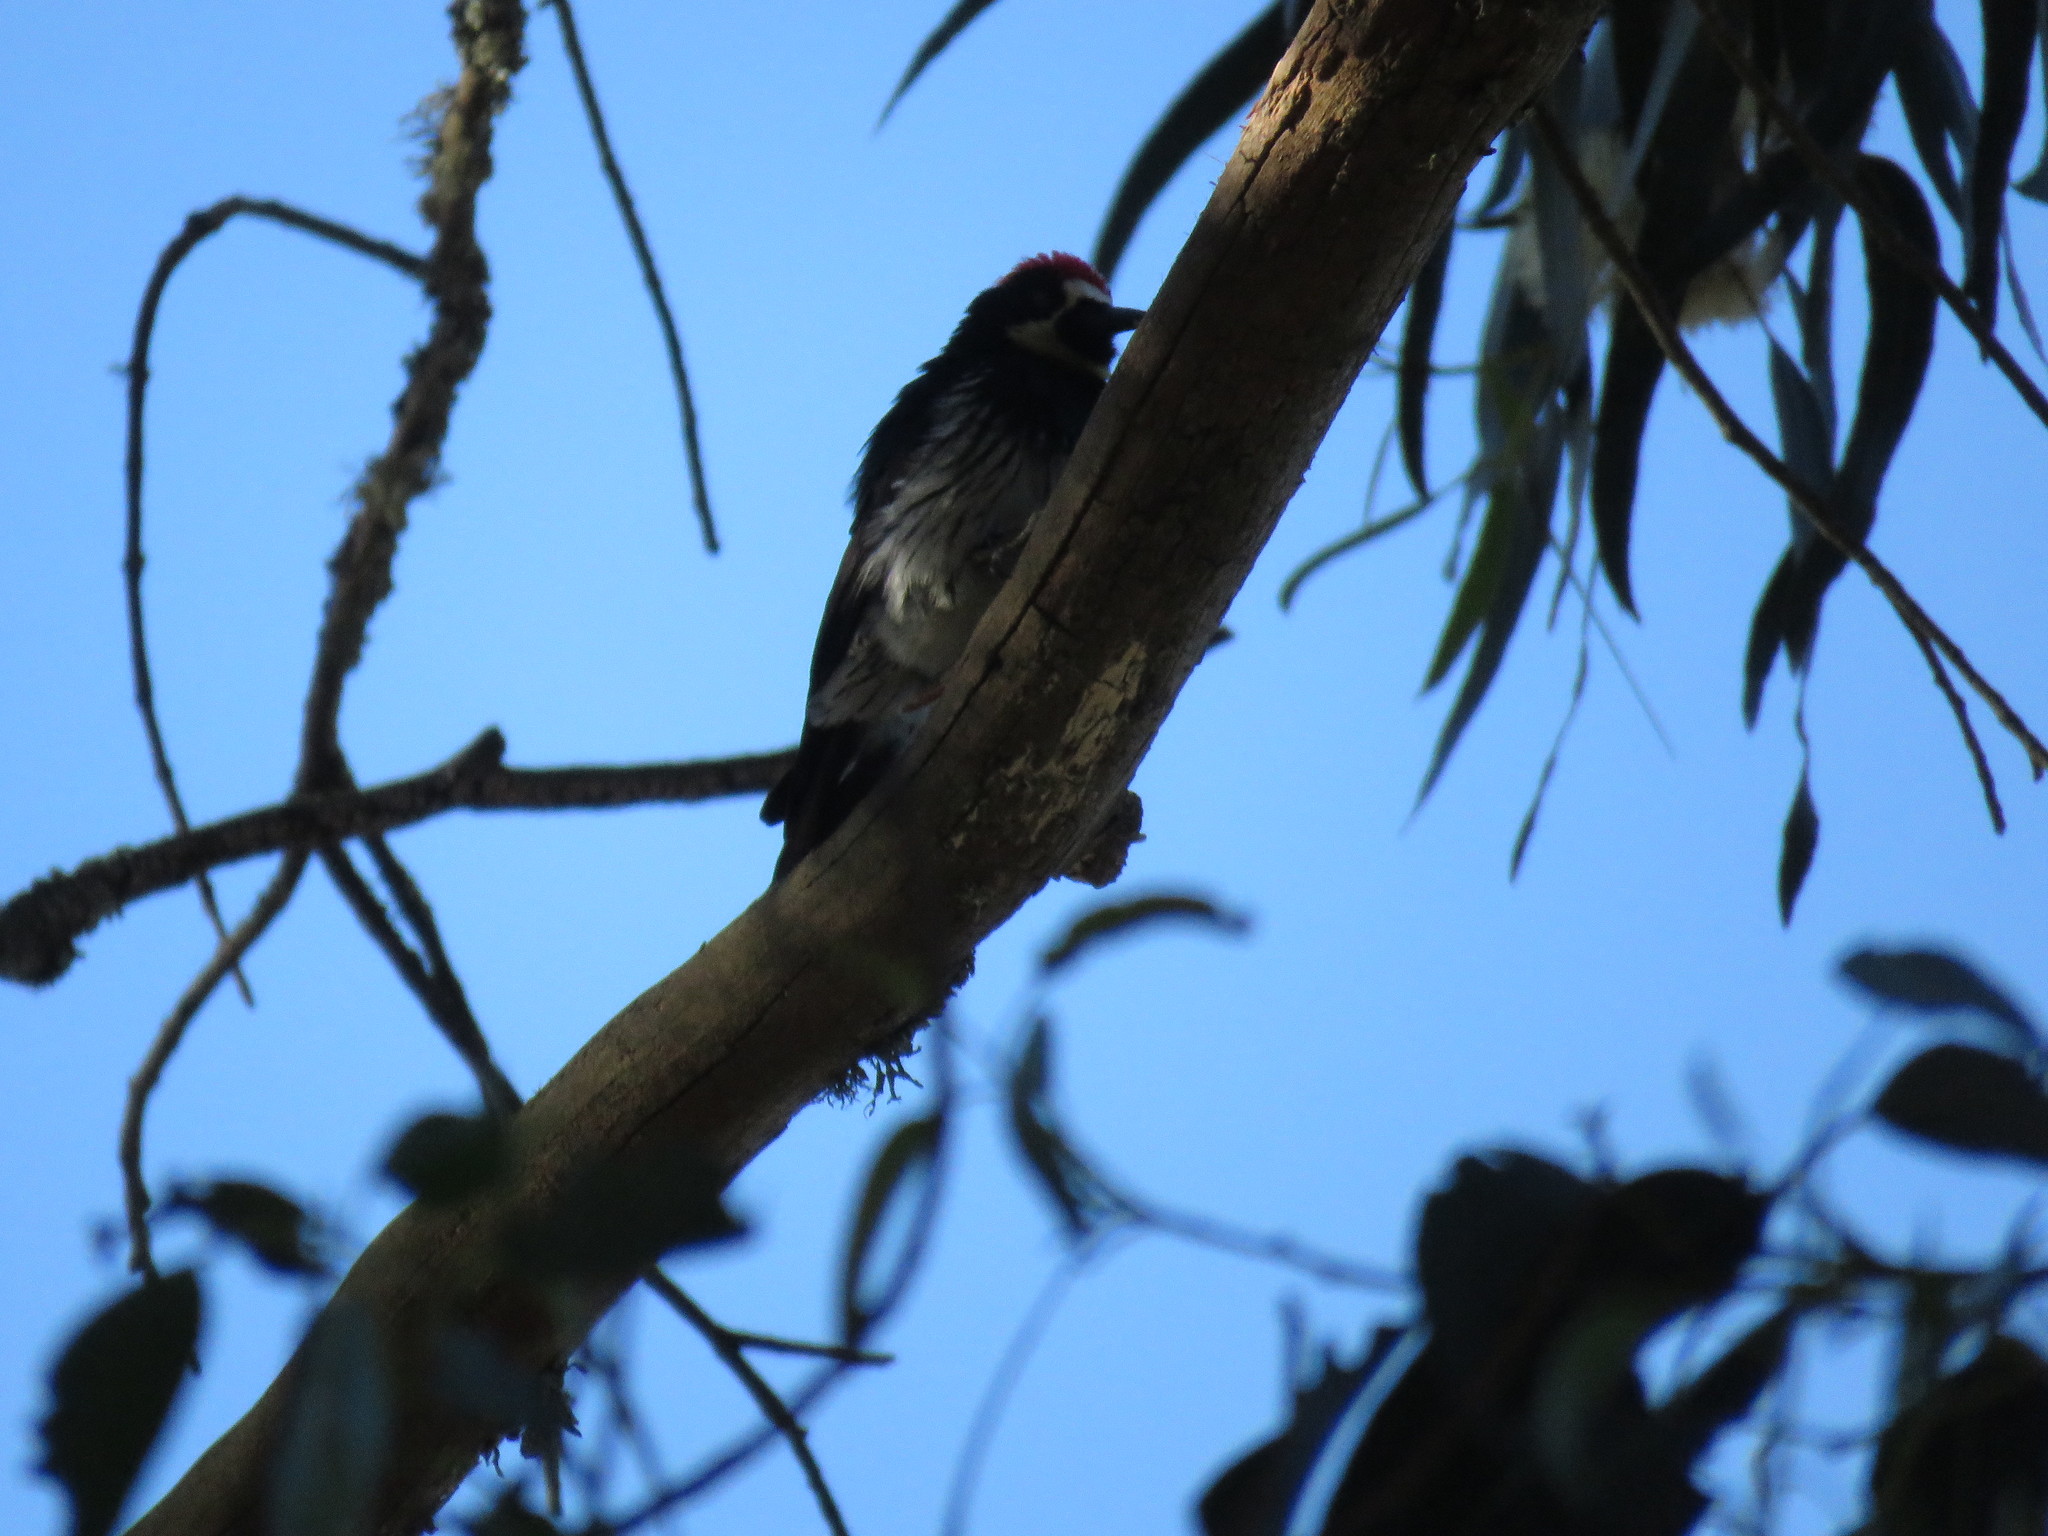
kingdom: Animalia
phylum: Chordata
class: Aves
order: Piciformes
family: Picidae
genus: Melanerpes
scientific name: Melanerpes formicivorus
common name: Acorn woodpecker
